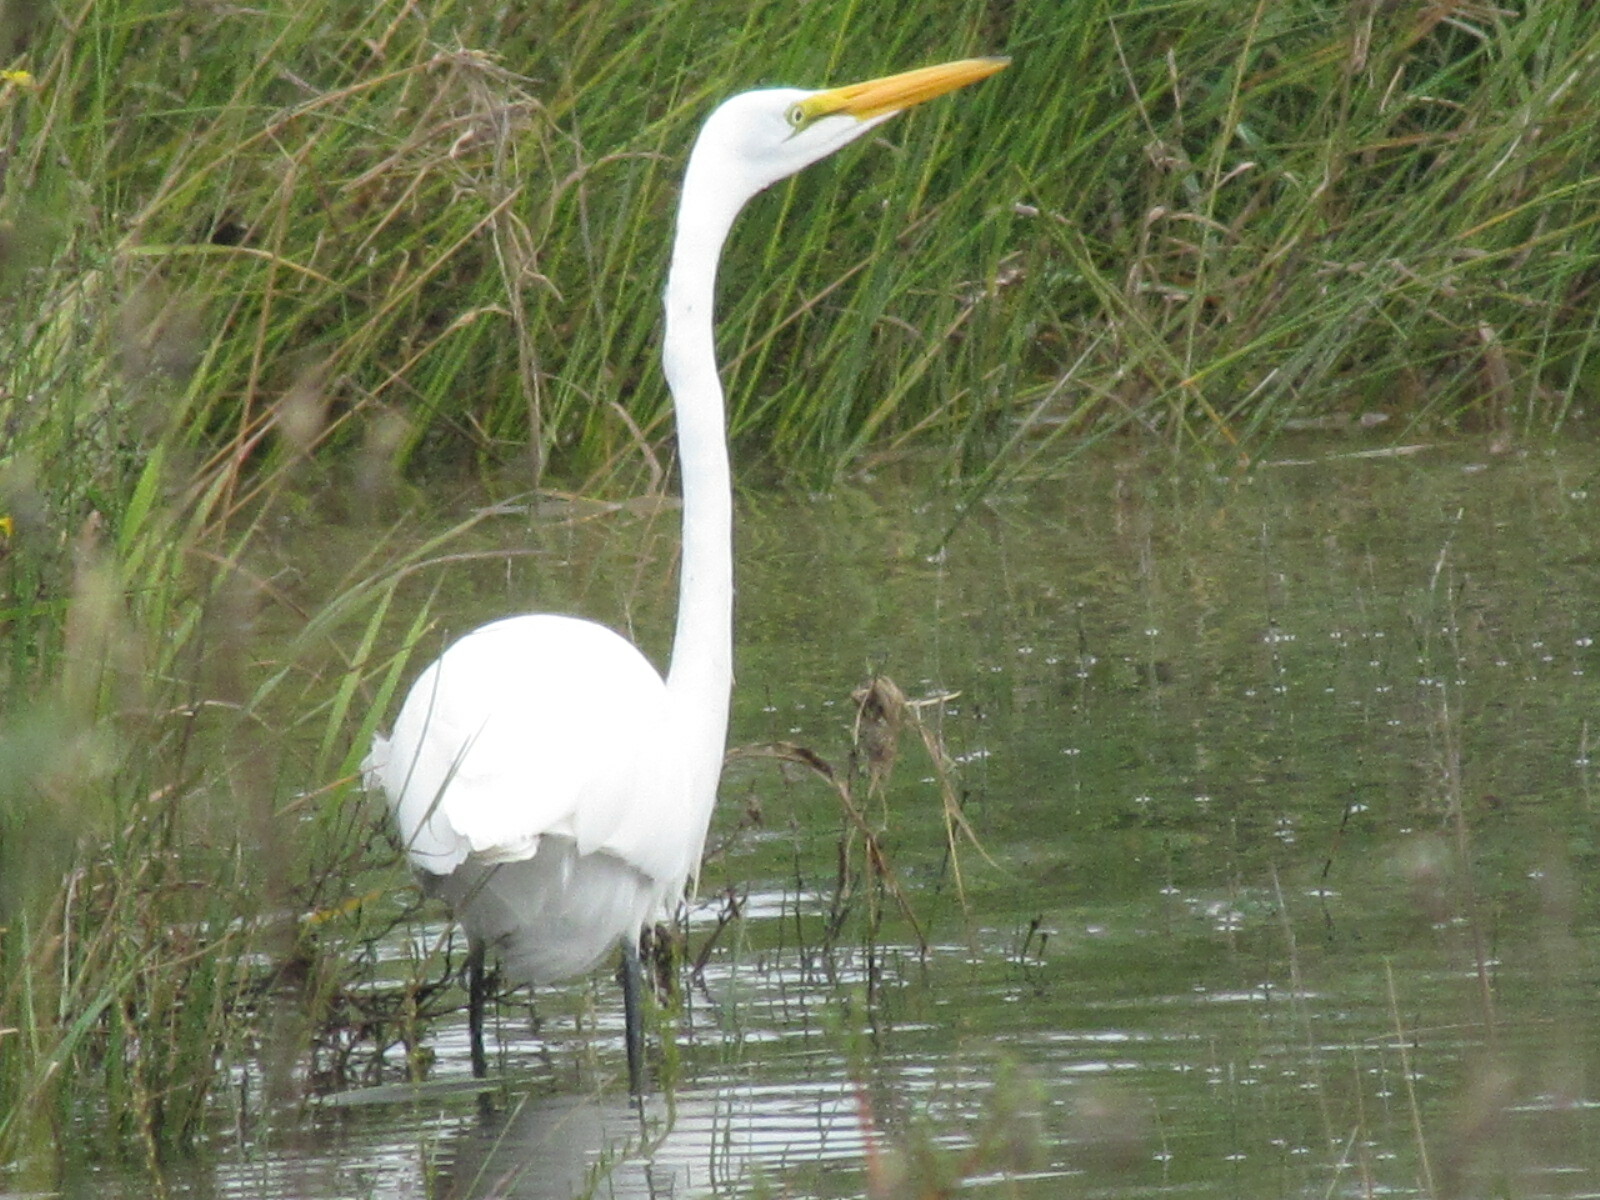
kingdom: Animalia
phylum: Chordata
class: Aves
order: Pelecaniformes
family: Ardeidae
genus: Ardea
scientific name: Ardea alba
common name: Great egret
